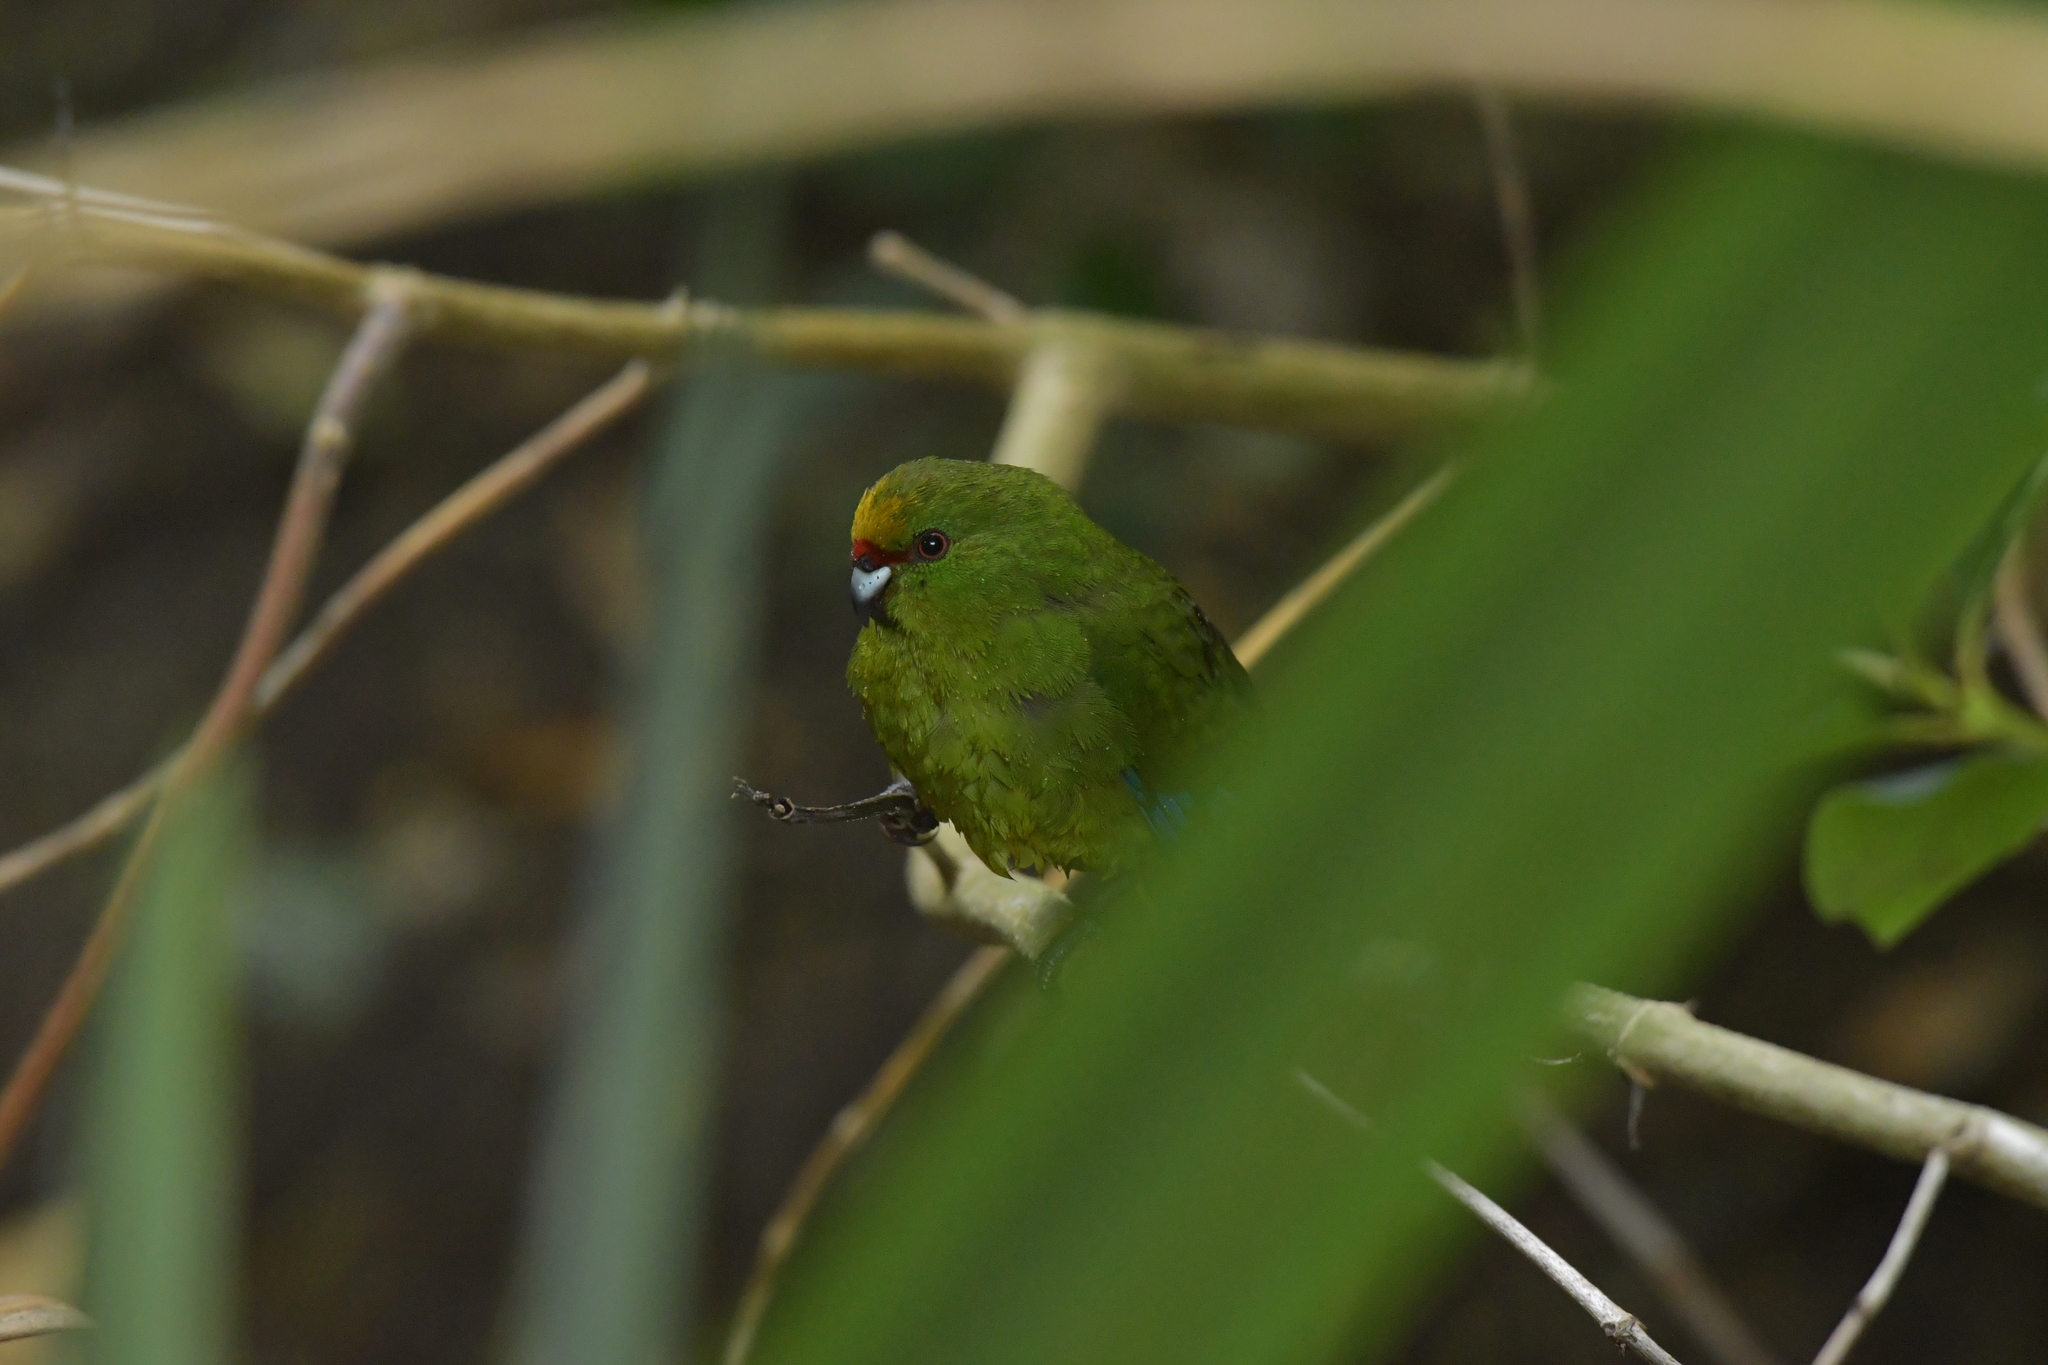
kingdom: Animalia
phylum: Chordata
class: Aves
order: Psittaciformes
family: Psittacidae
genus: Cyanoramphus
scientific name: Cyanoramphus auriceps
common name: Yellow-crowned parakeet
